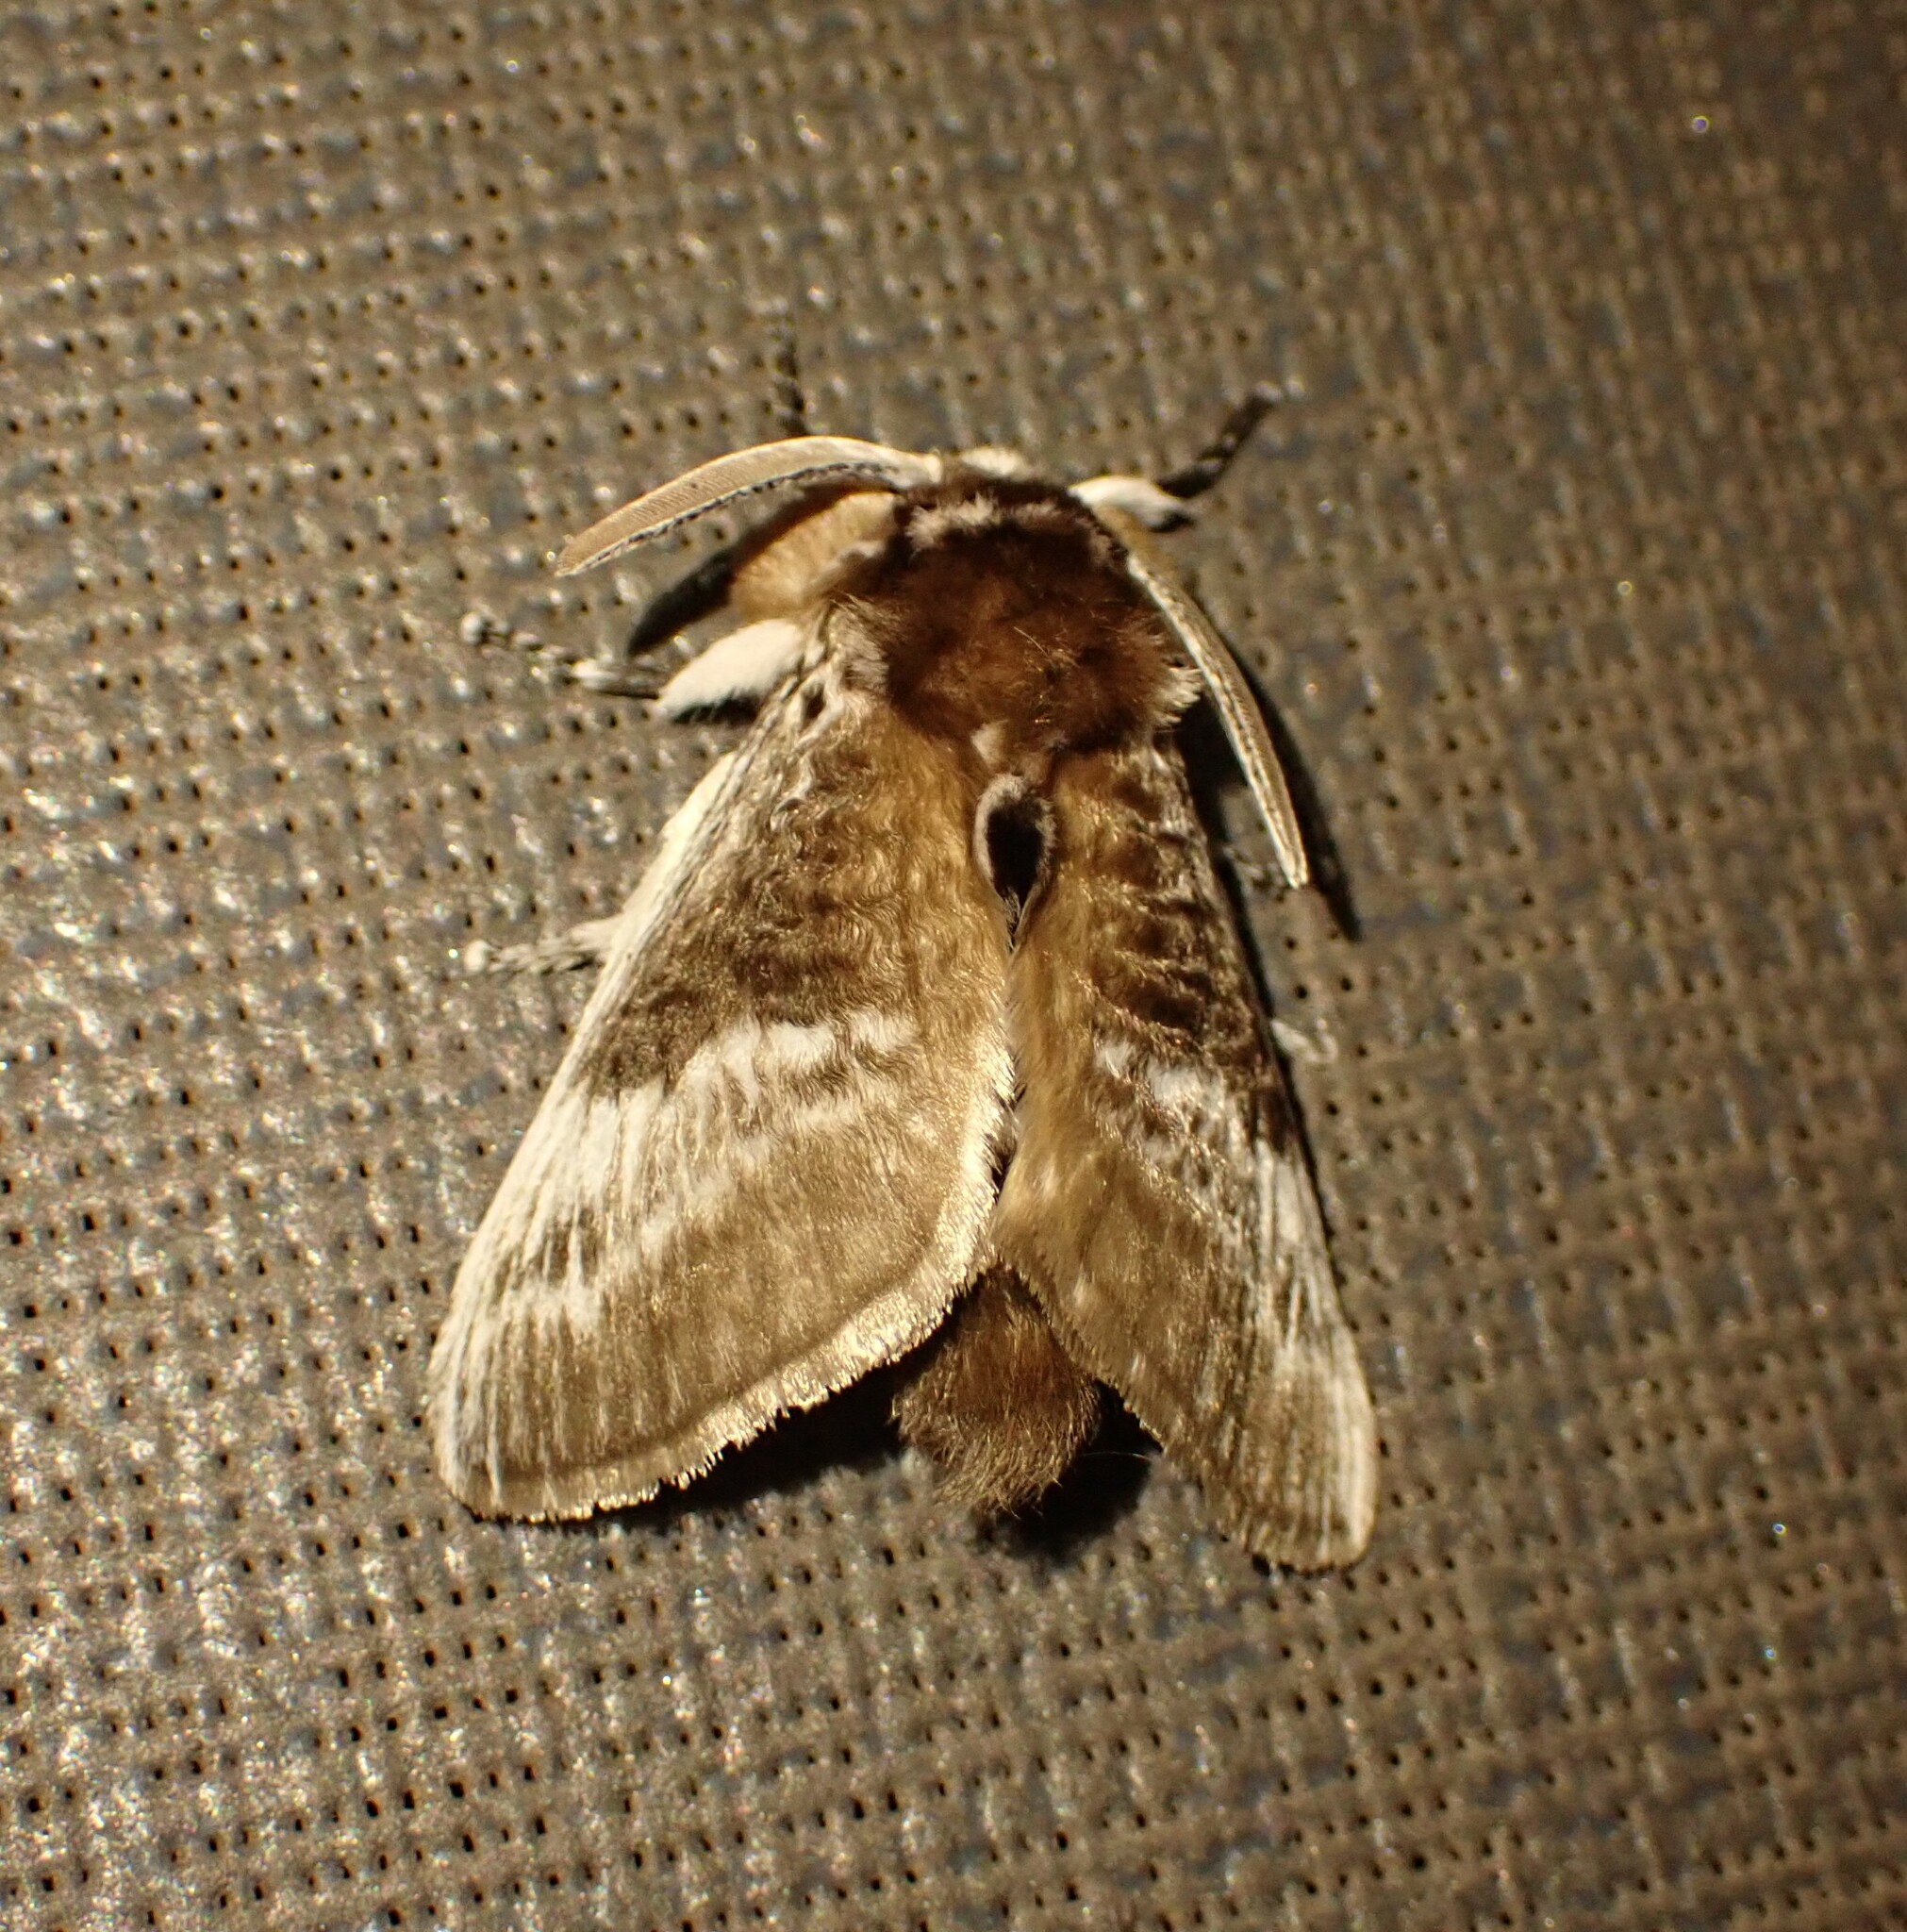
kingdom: Animalia
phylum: Arthropoda
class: Insecta
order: Lepidoptera
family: Megalopygidae
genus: Podalia
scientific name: Podalia walkeri
